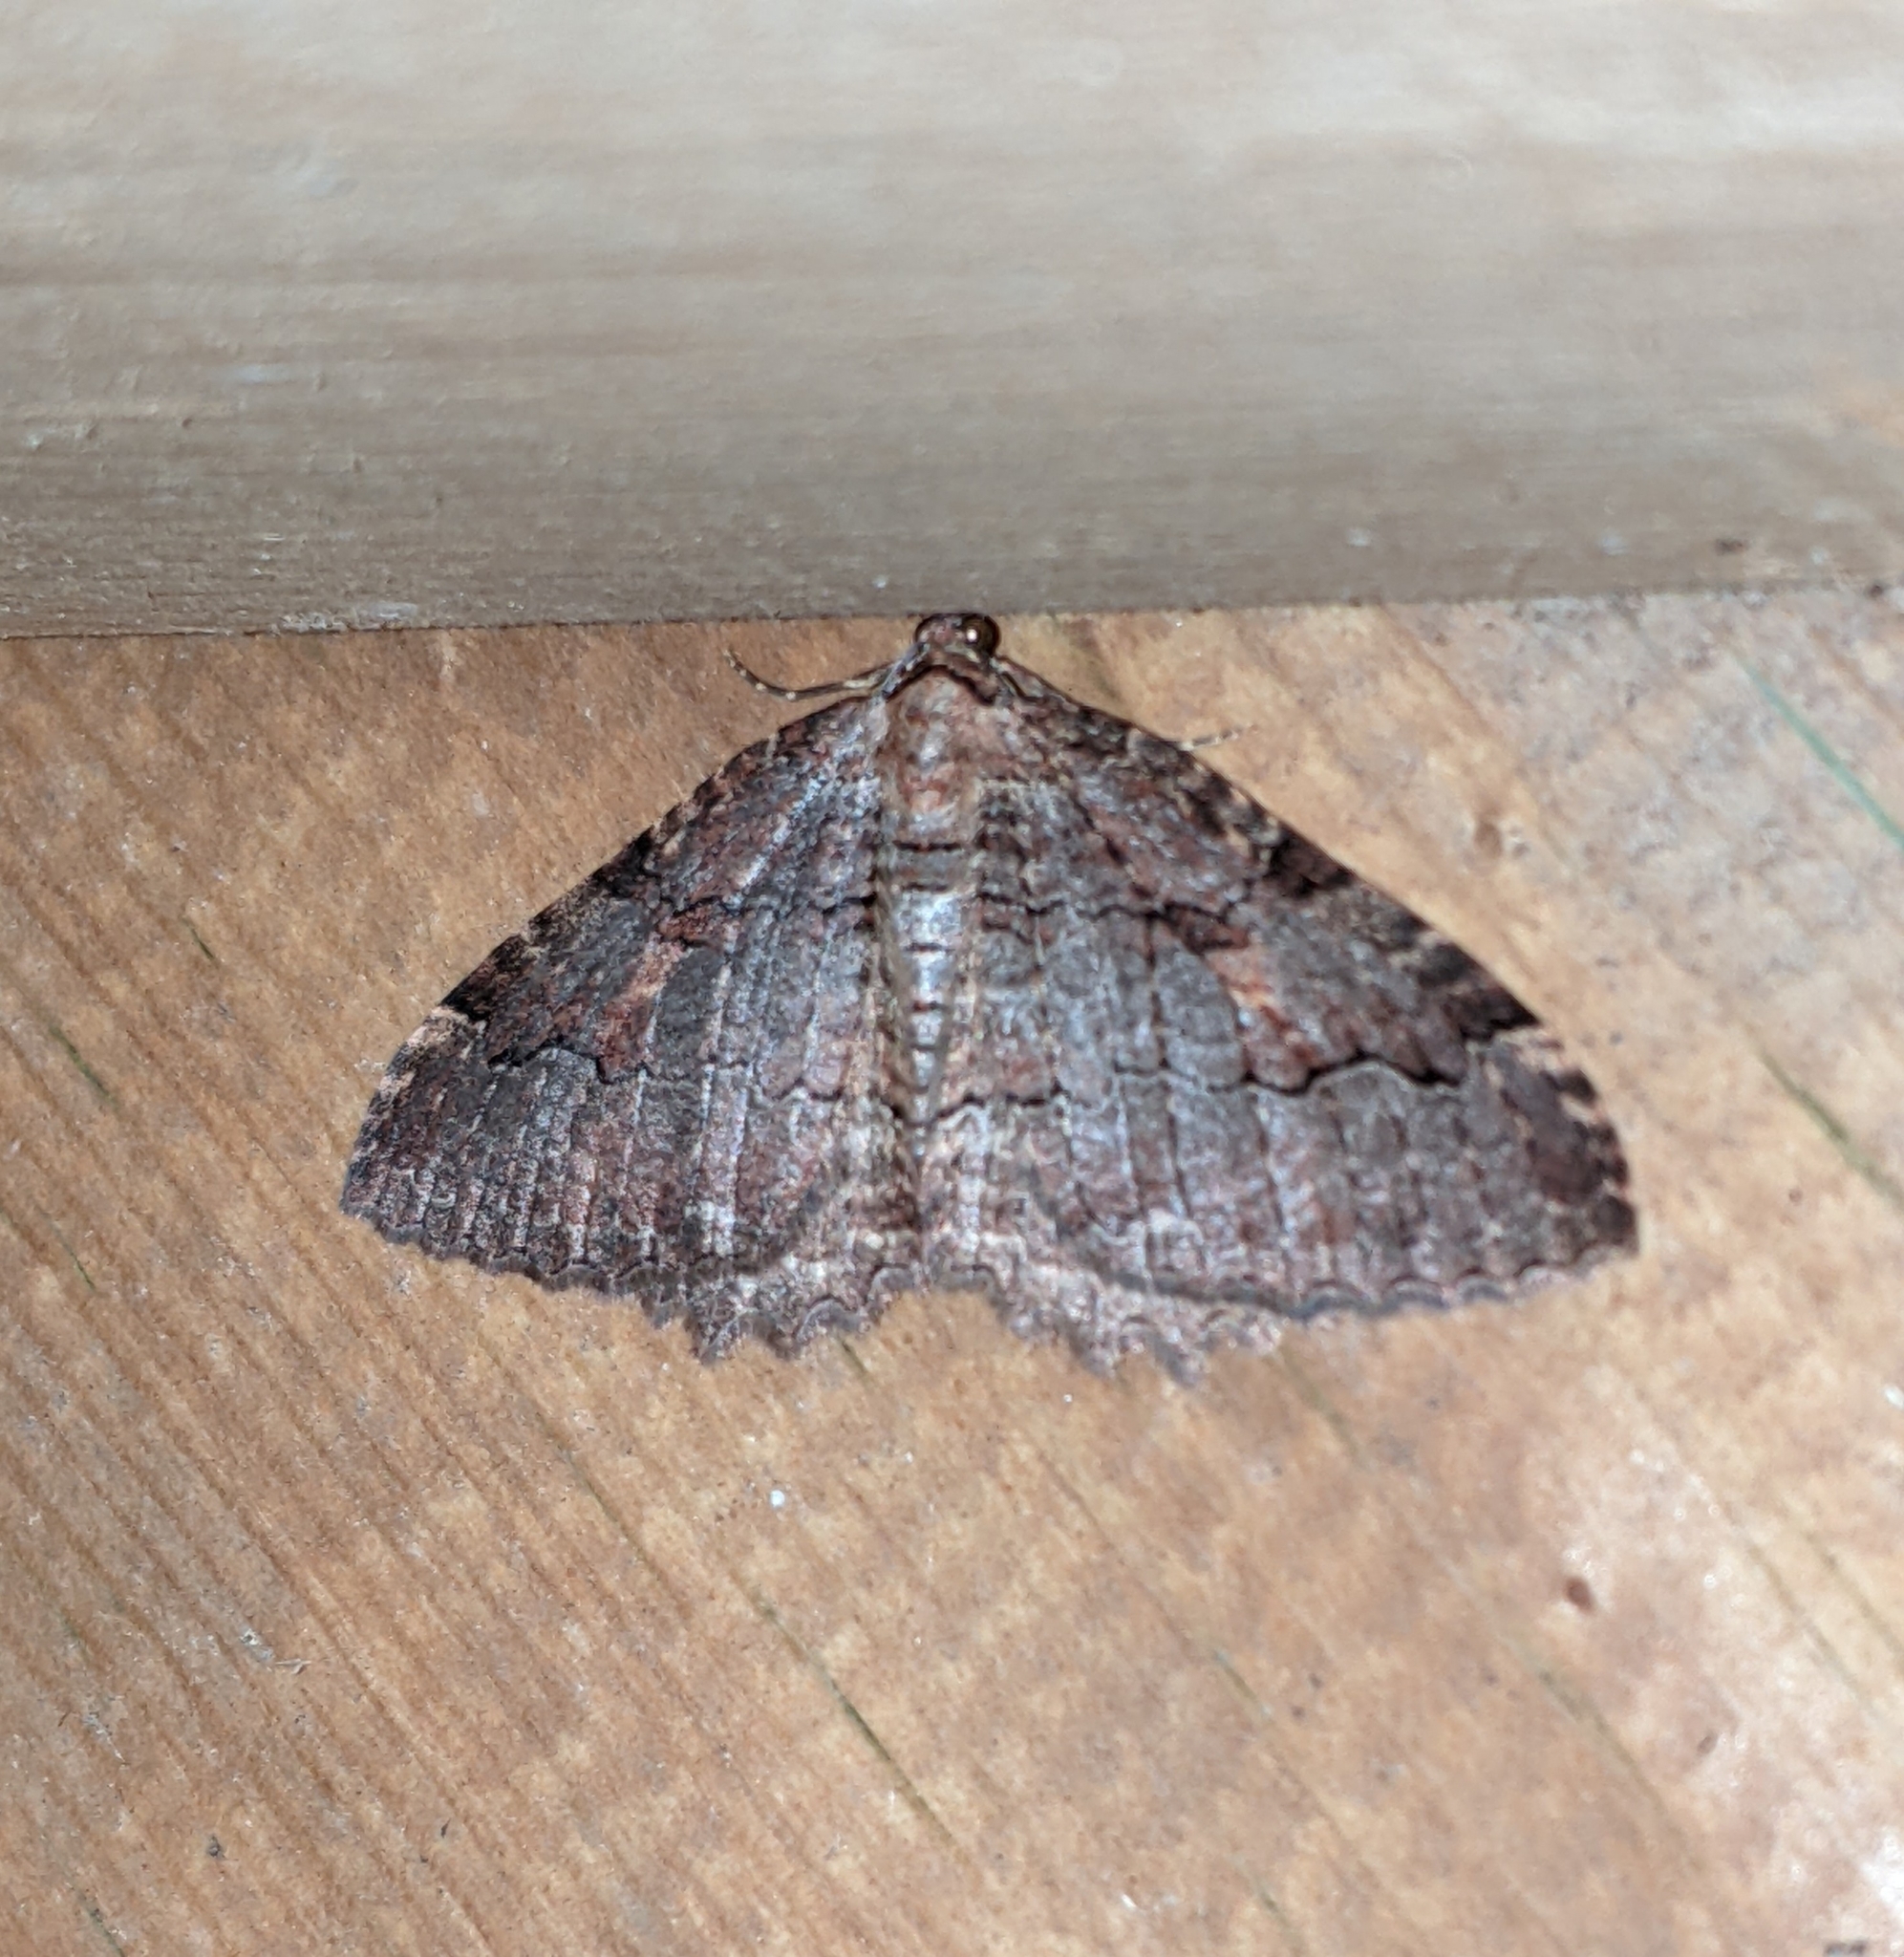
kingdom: Animalia
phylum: Arthropoda
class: Insecta
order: Lepidoptera
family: Geometridae
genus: Triphosa
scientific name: Triphosa haesitata
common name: Tissue moth
